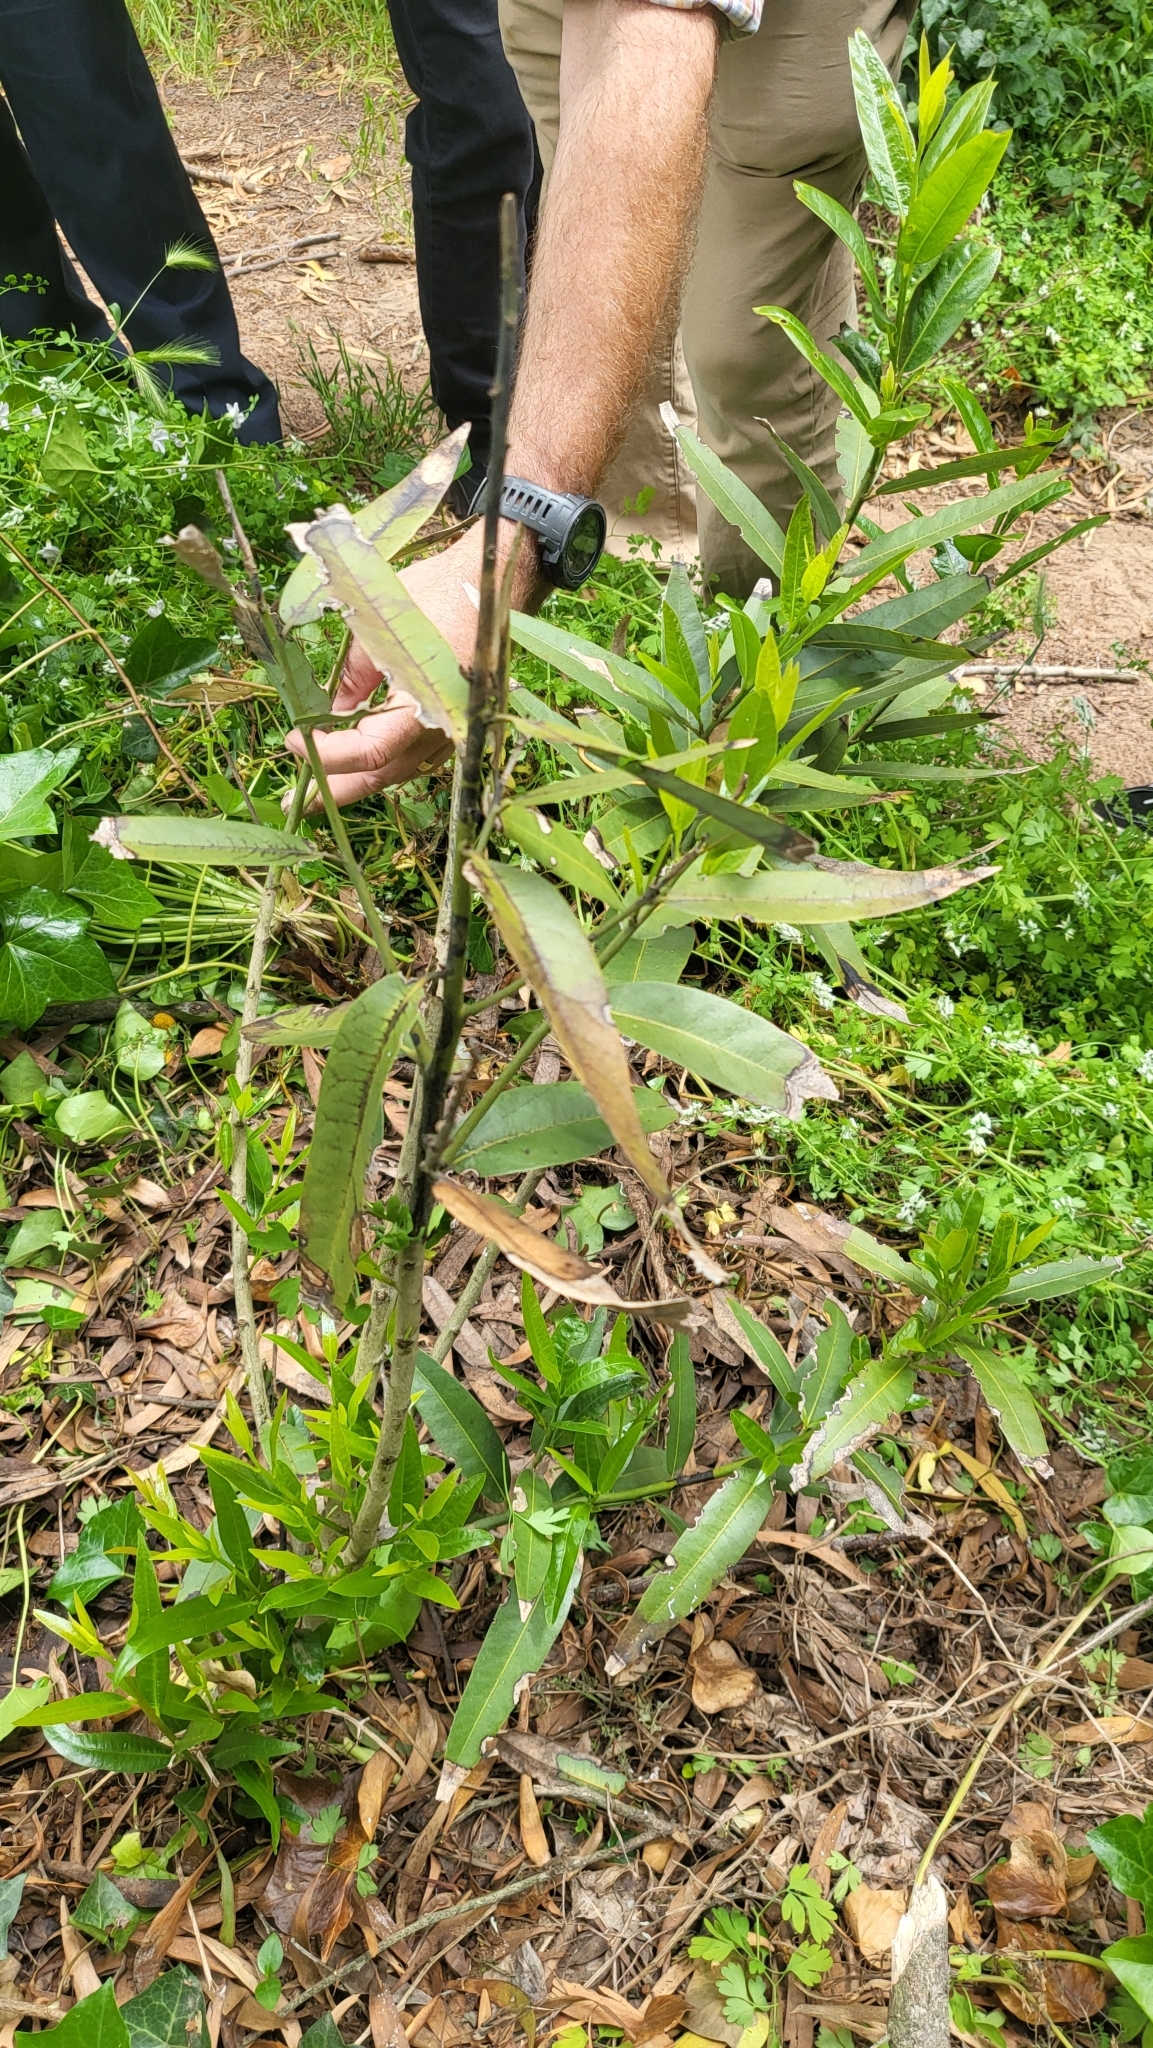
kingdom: Plantae
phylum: Tracheophyta
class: Magnoliopsida
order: Laurales
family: Lauraceae
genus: Umbellularia
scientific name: Umbellularia californica
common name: California bay
